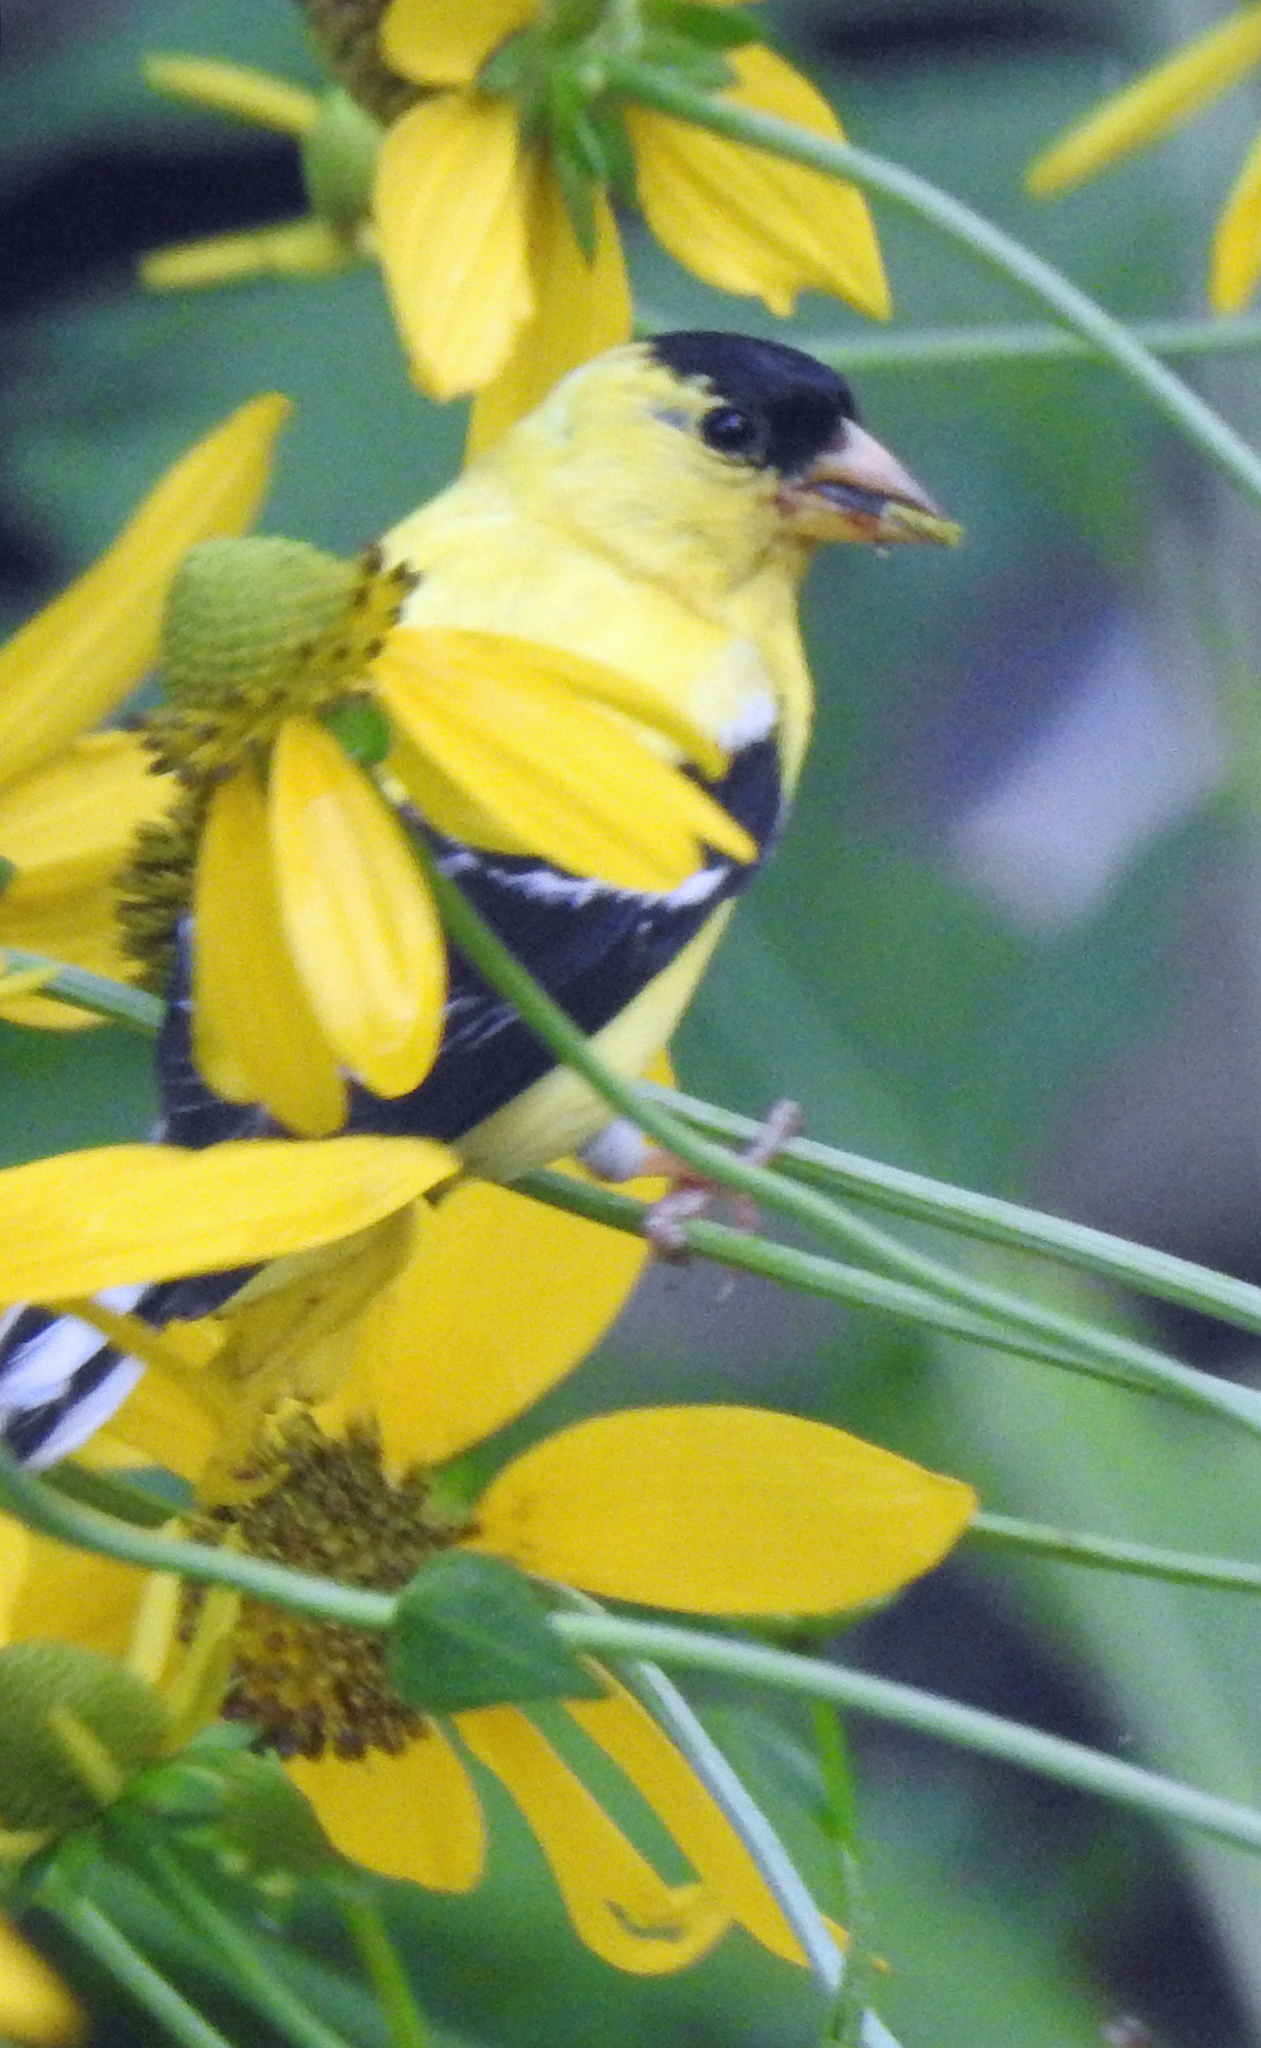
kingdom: Animalia
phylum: Chordata
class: Aves
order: Passeriformes
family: Fringillidae
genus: Spinus
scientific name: Spinus tristis
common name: American goldfinch
